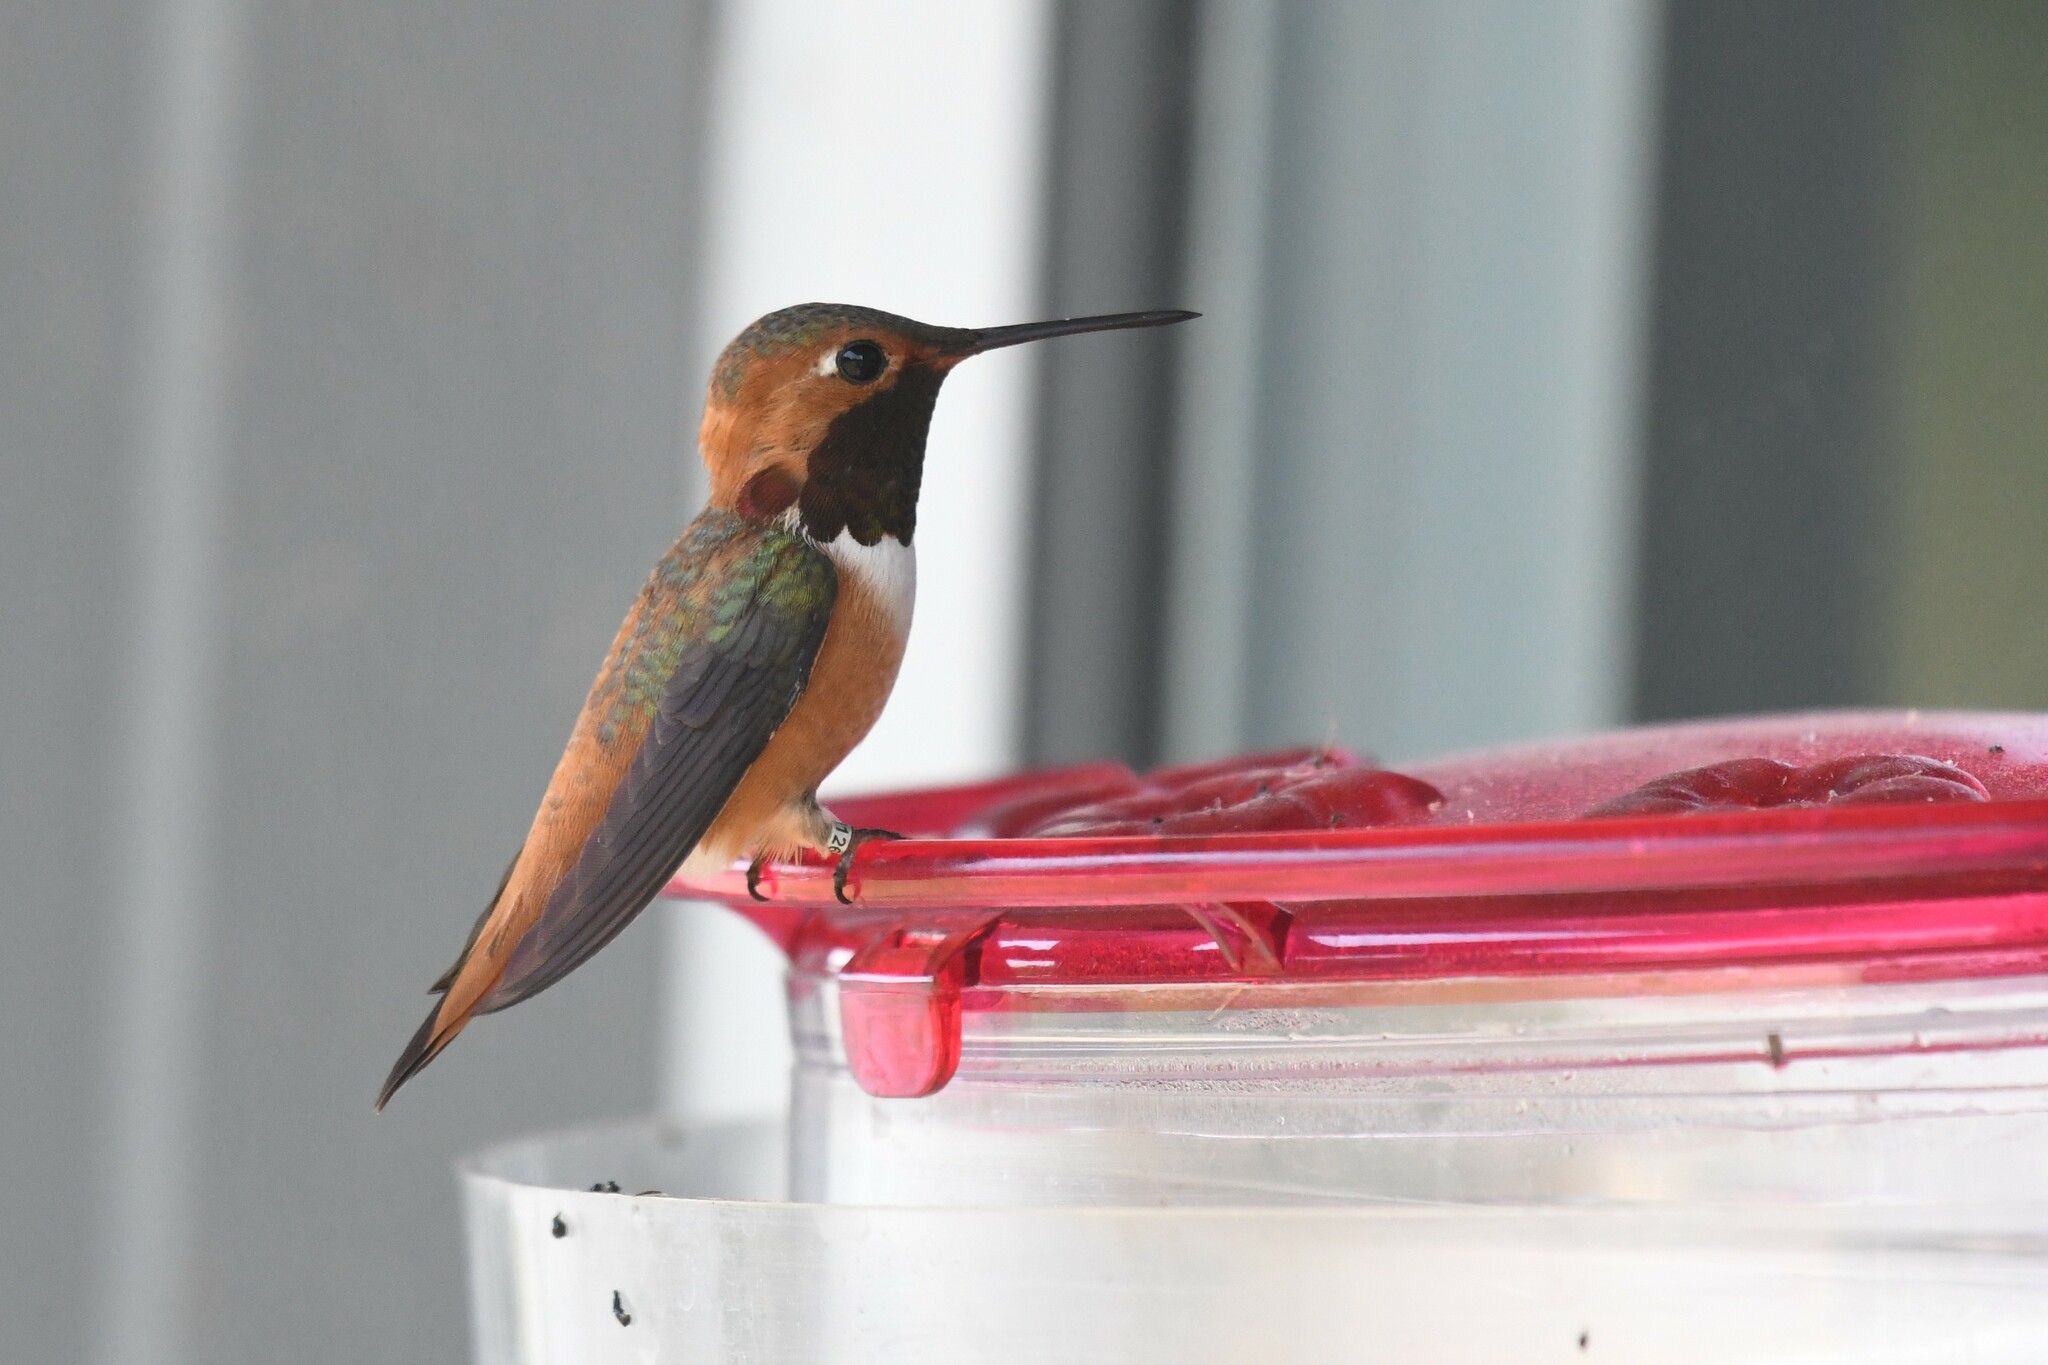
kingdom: Animalia
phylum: Chordata
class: Aves
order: Apodiformes
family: Trochilidae
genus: Selasphorus
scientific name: Selasphorus rufus
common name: Rufous hummingbird
